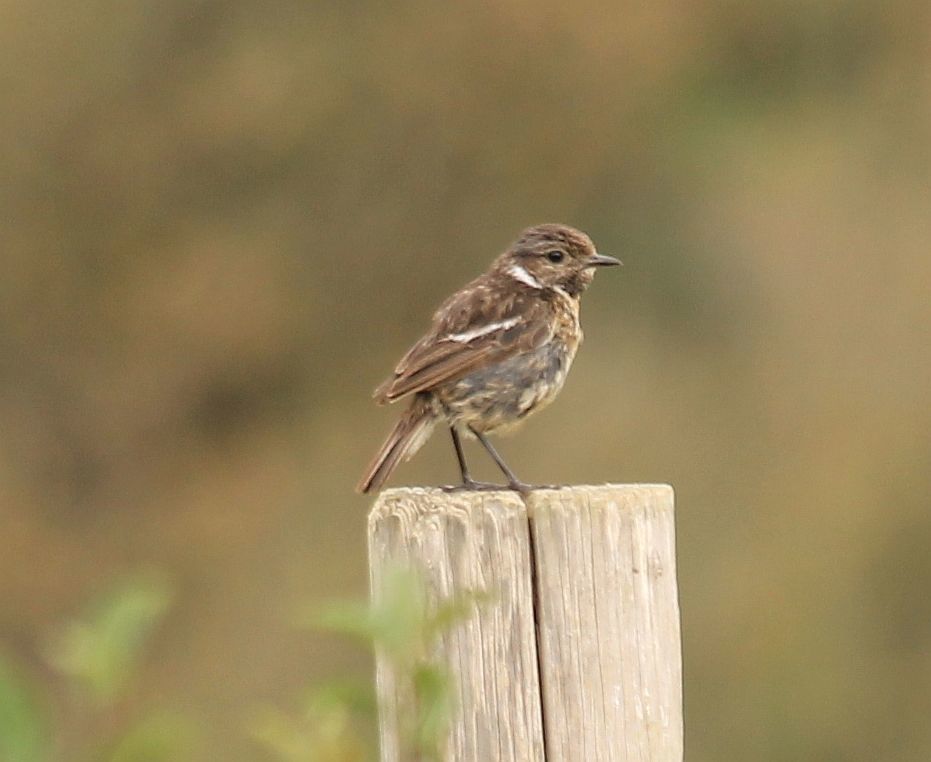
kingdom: Animalia
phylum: Chordata
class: Aves
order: Passeriformes
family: Muscicapidae
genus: Saxicola
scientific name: Saxicola rubicola
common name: European stonechat
